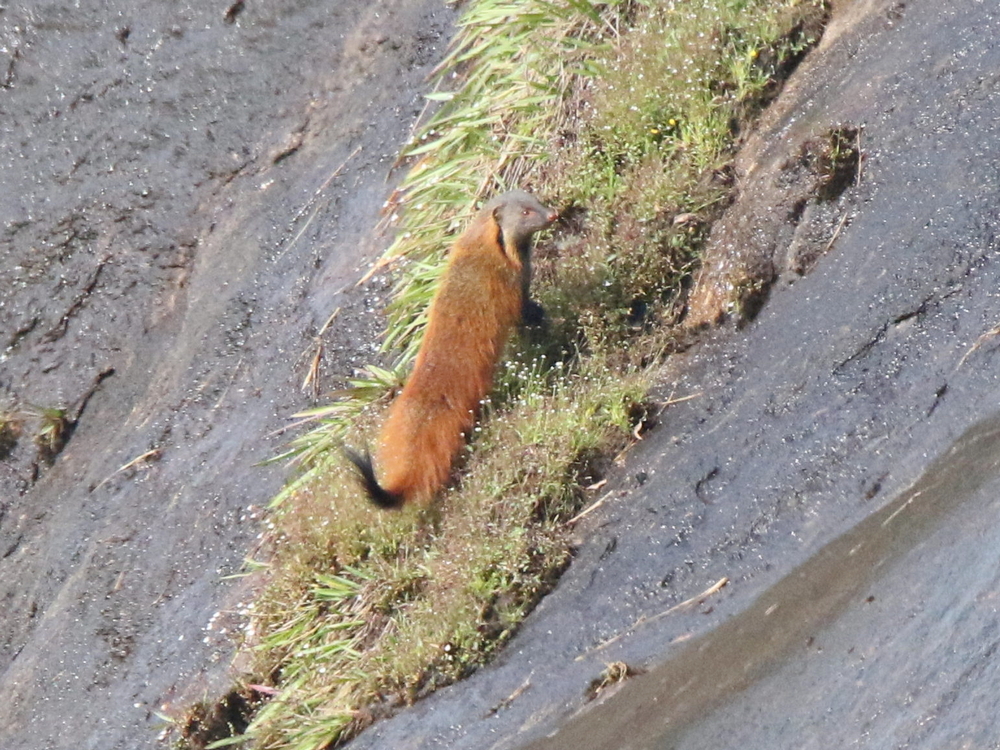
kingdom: Animalia
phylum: Chordata
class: Mammalia
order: Carnivora
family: Herpestidae
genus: Herpestes
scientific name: Herpestes vitticollis
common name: Stripe-necked mongoose
